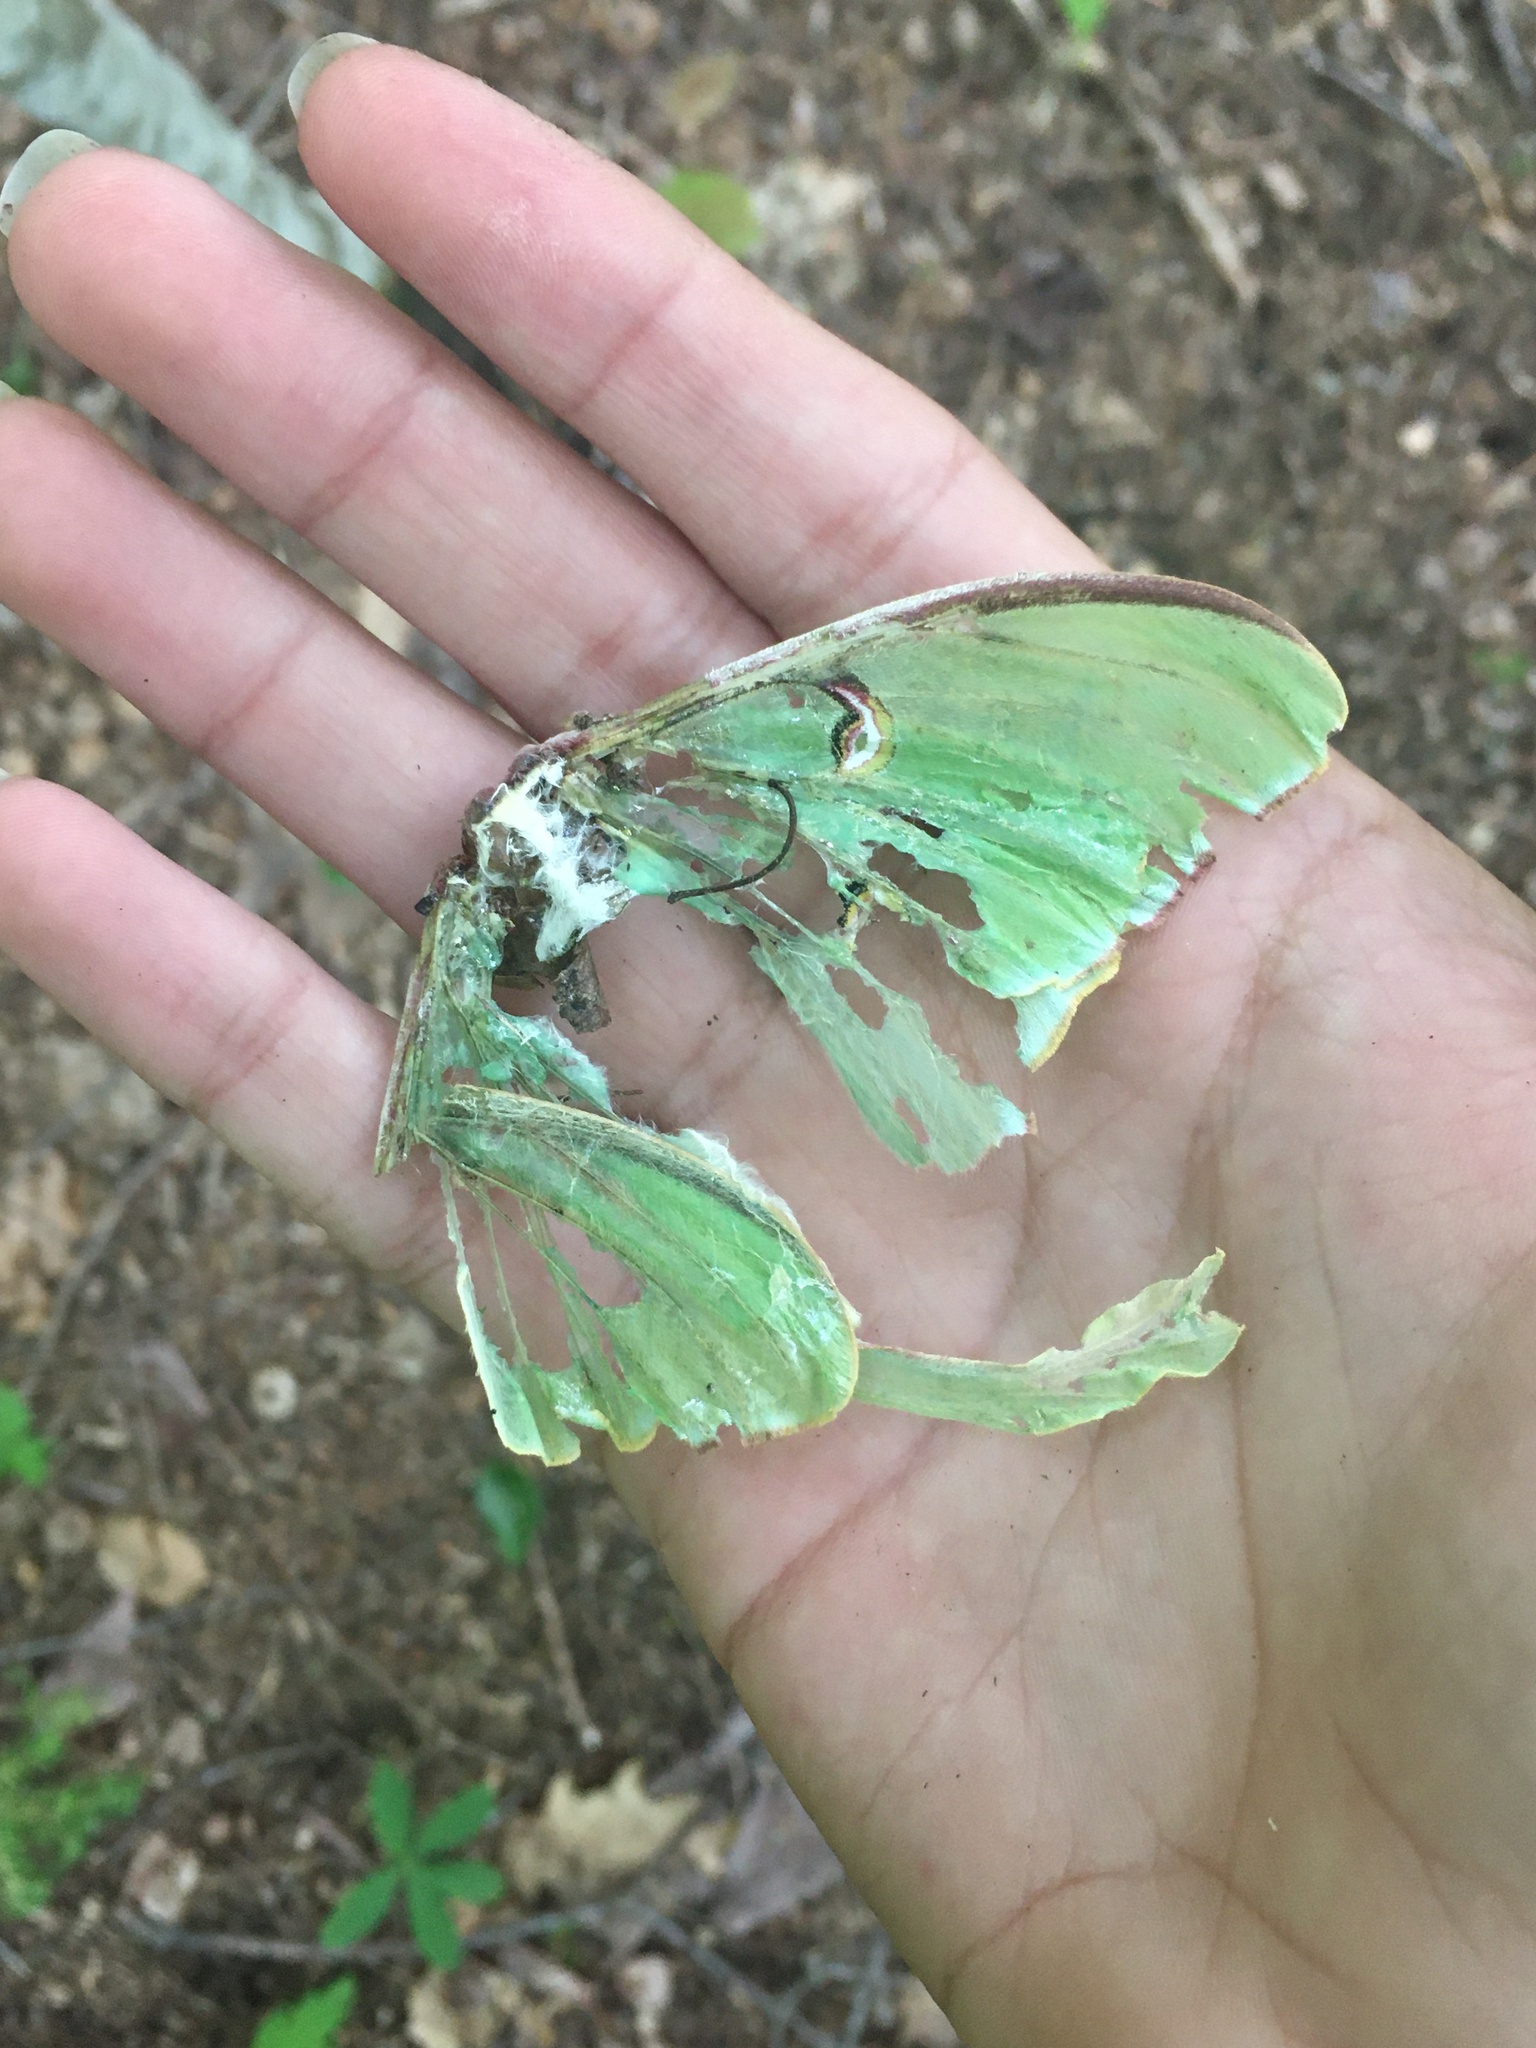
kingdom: Animalia
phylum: Arthropoda
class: Insecta
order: Lepidoptera
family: Saturniidae
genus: Actias
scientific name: Actias luna
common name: Luna moth
